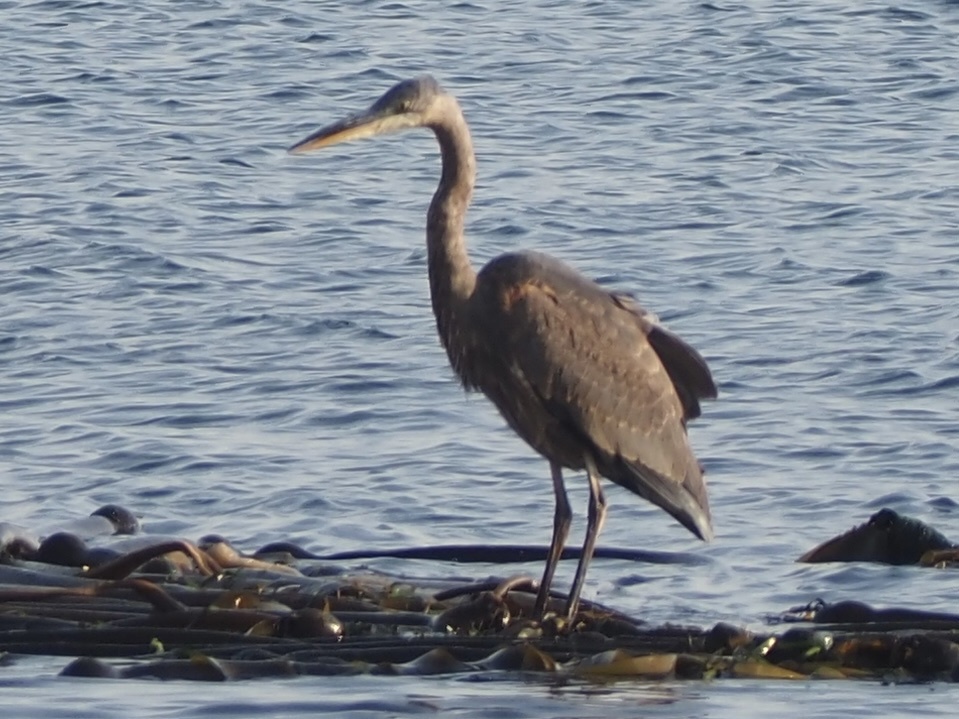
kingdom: Animalia
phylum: Chordata
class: Aves
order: Pelecaniformes
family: Ardeidae
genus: Ardea
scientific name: Ardea herodias
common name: Great blue heron
